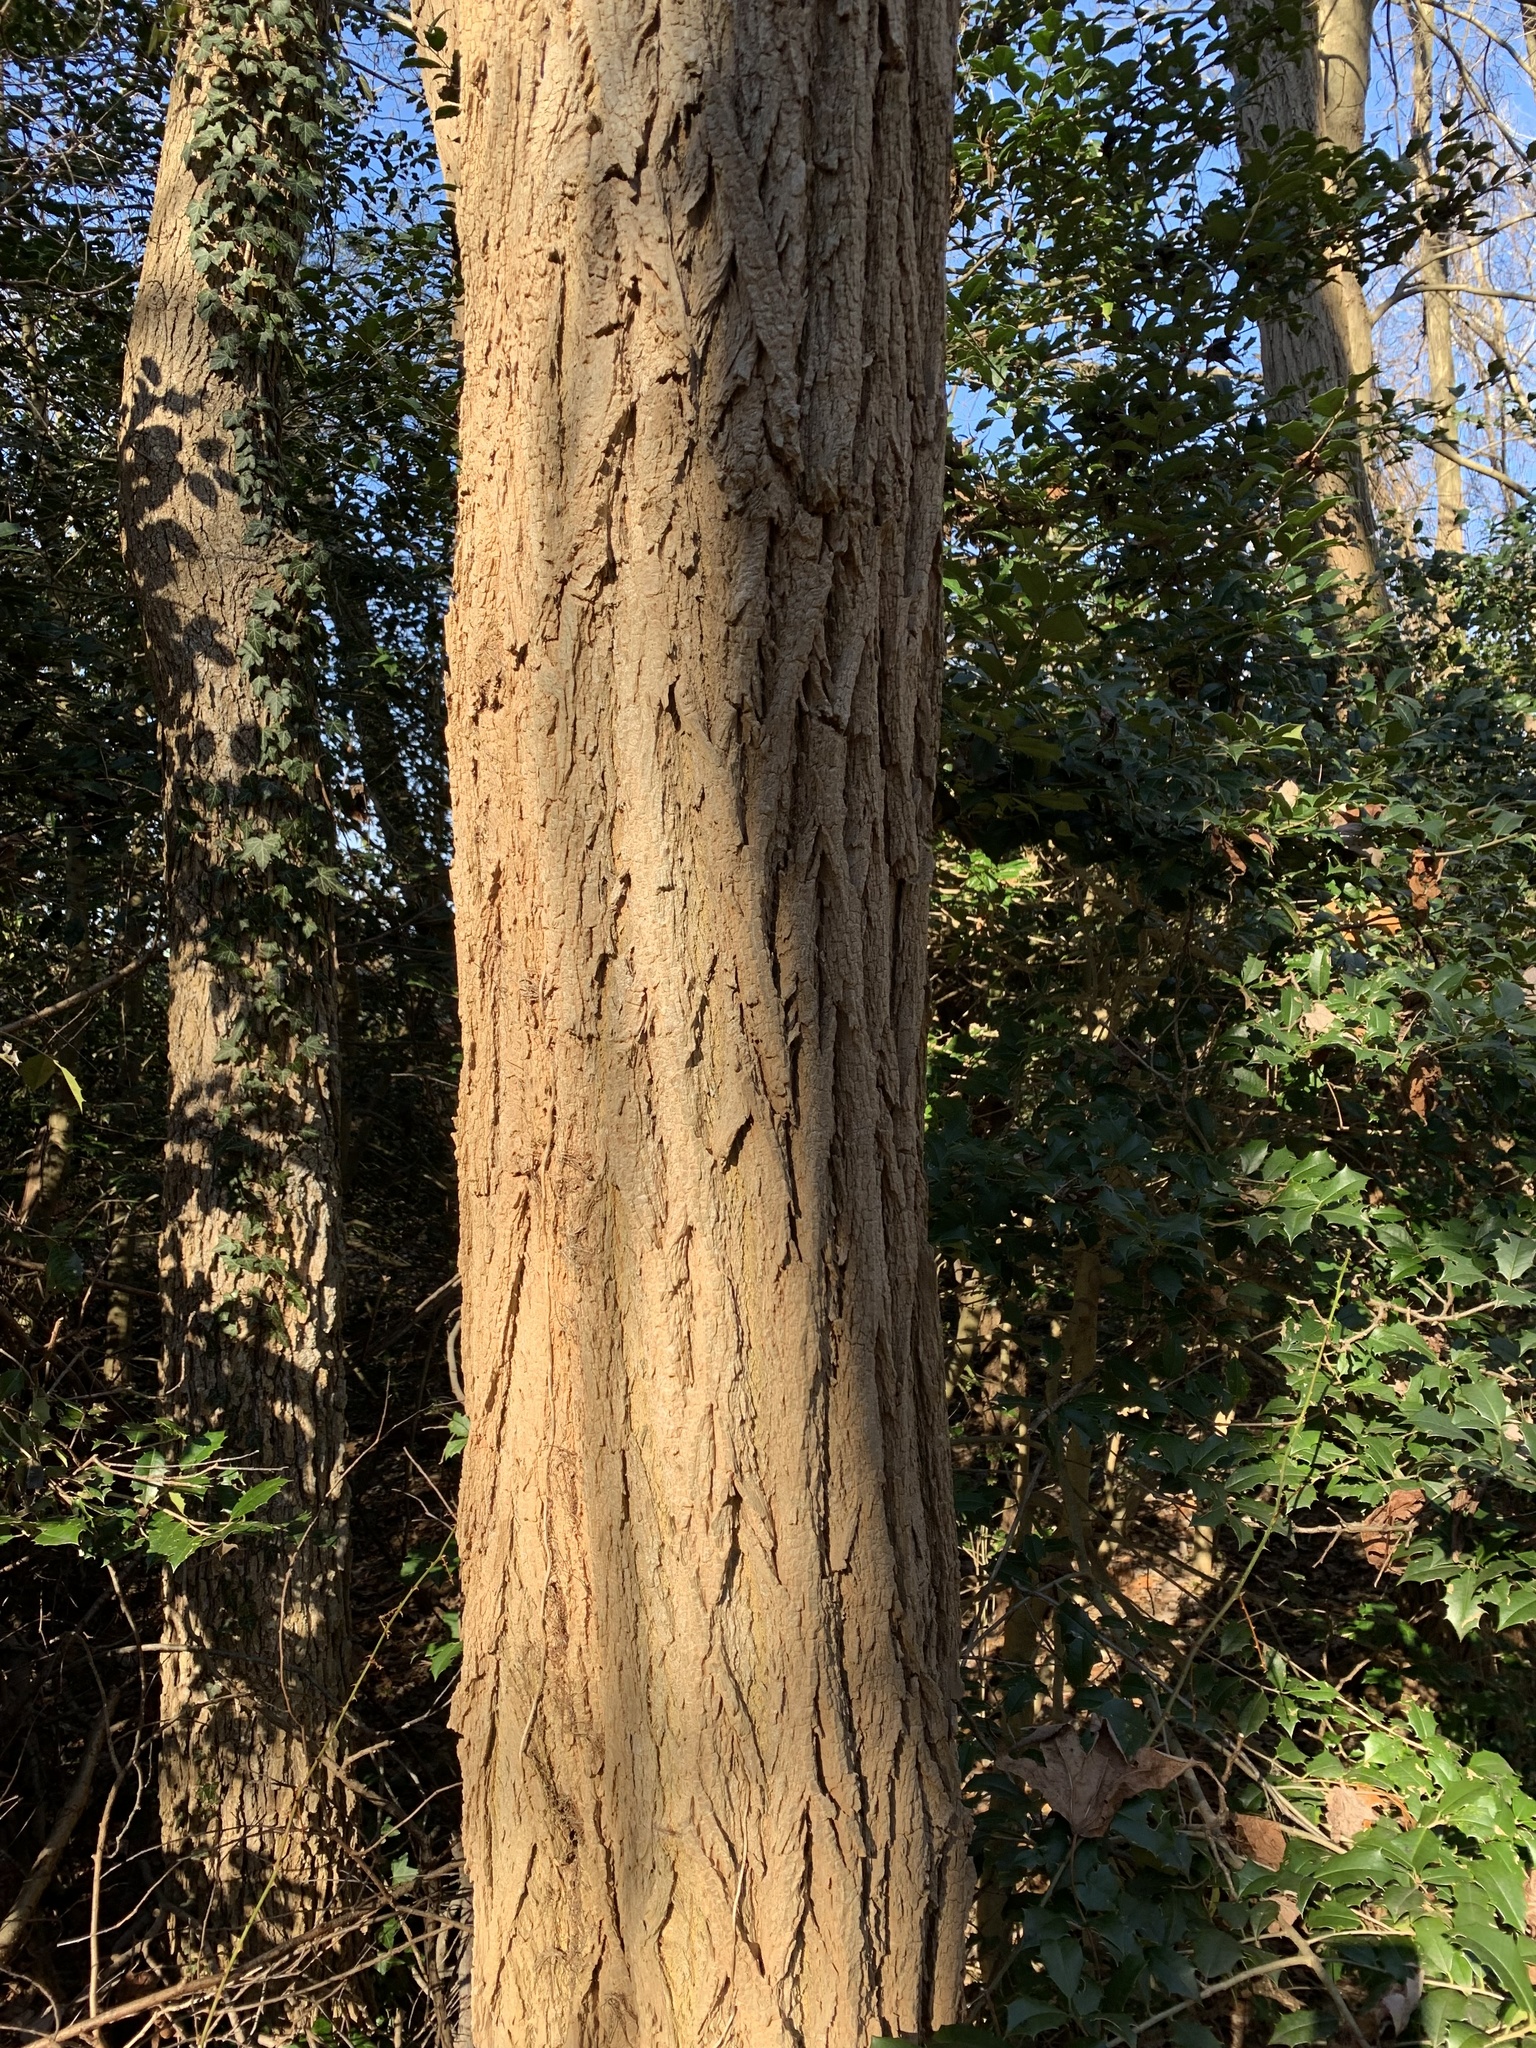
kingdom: Plantae
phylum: Tracheophyta
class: Magnoliopsida
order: Fabales
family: Fabaceae
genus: Robinia
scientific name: Robinia pseudoacacia
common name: Black locust
